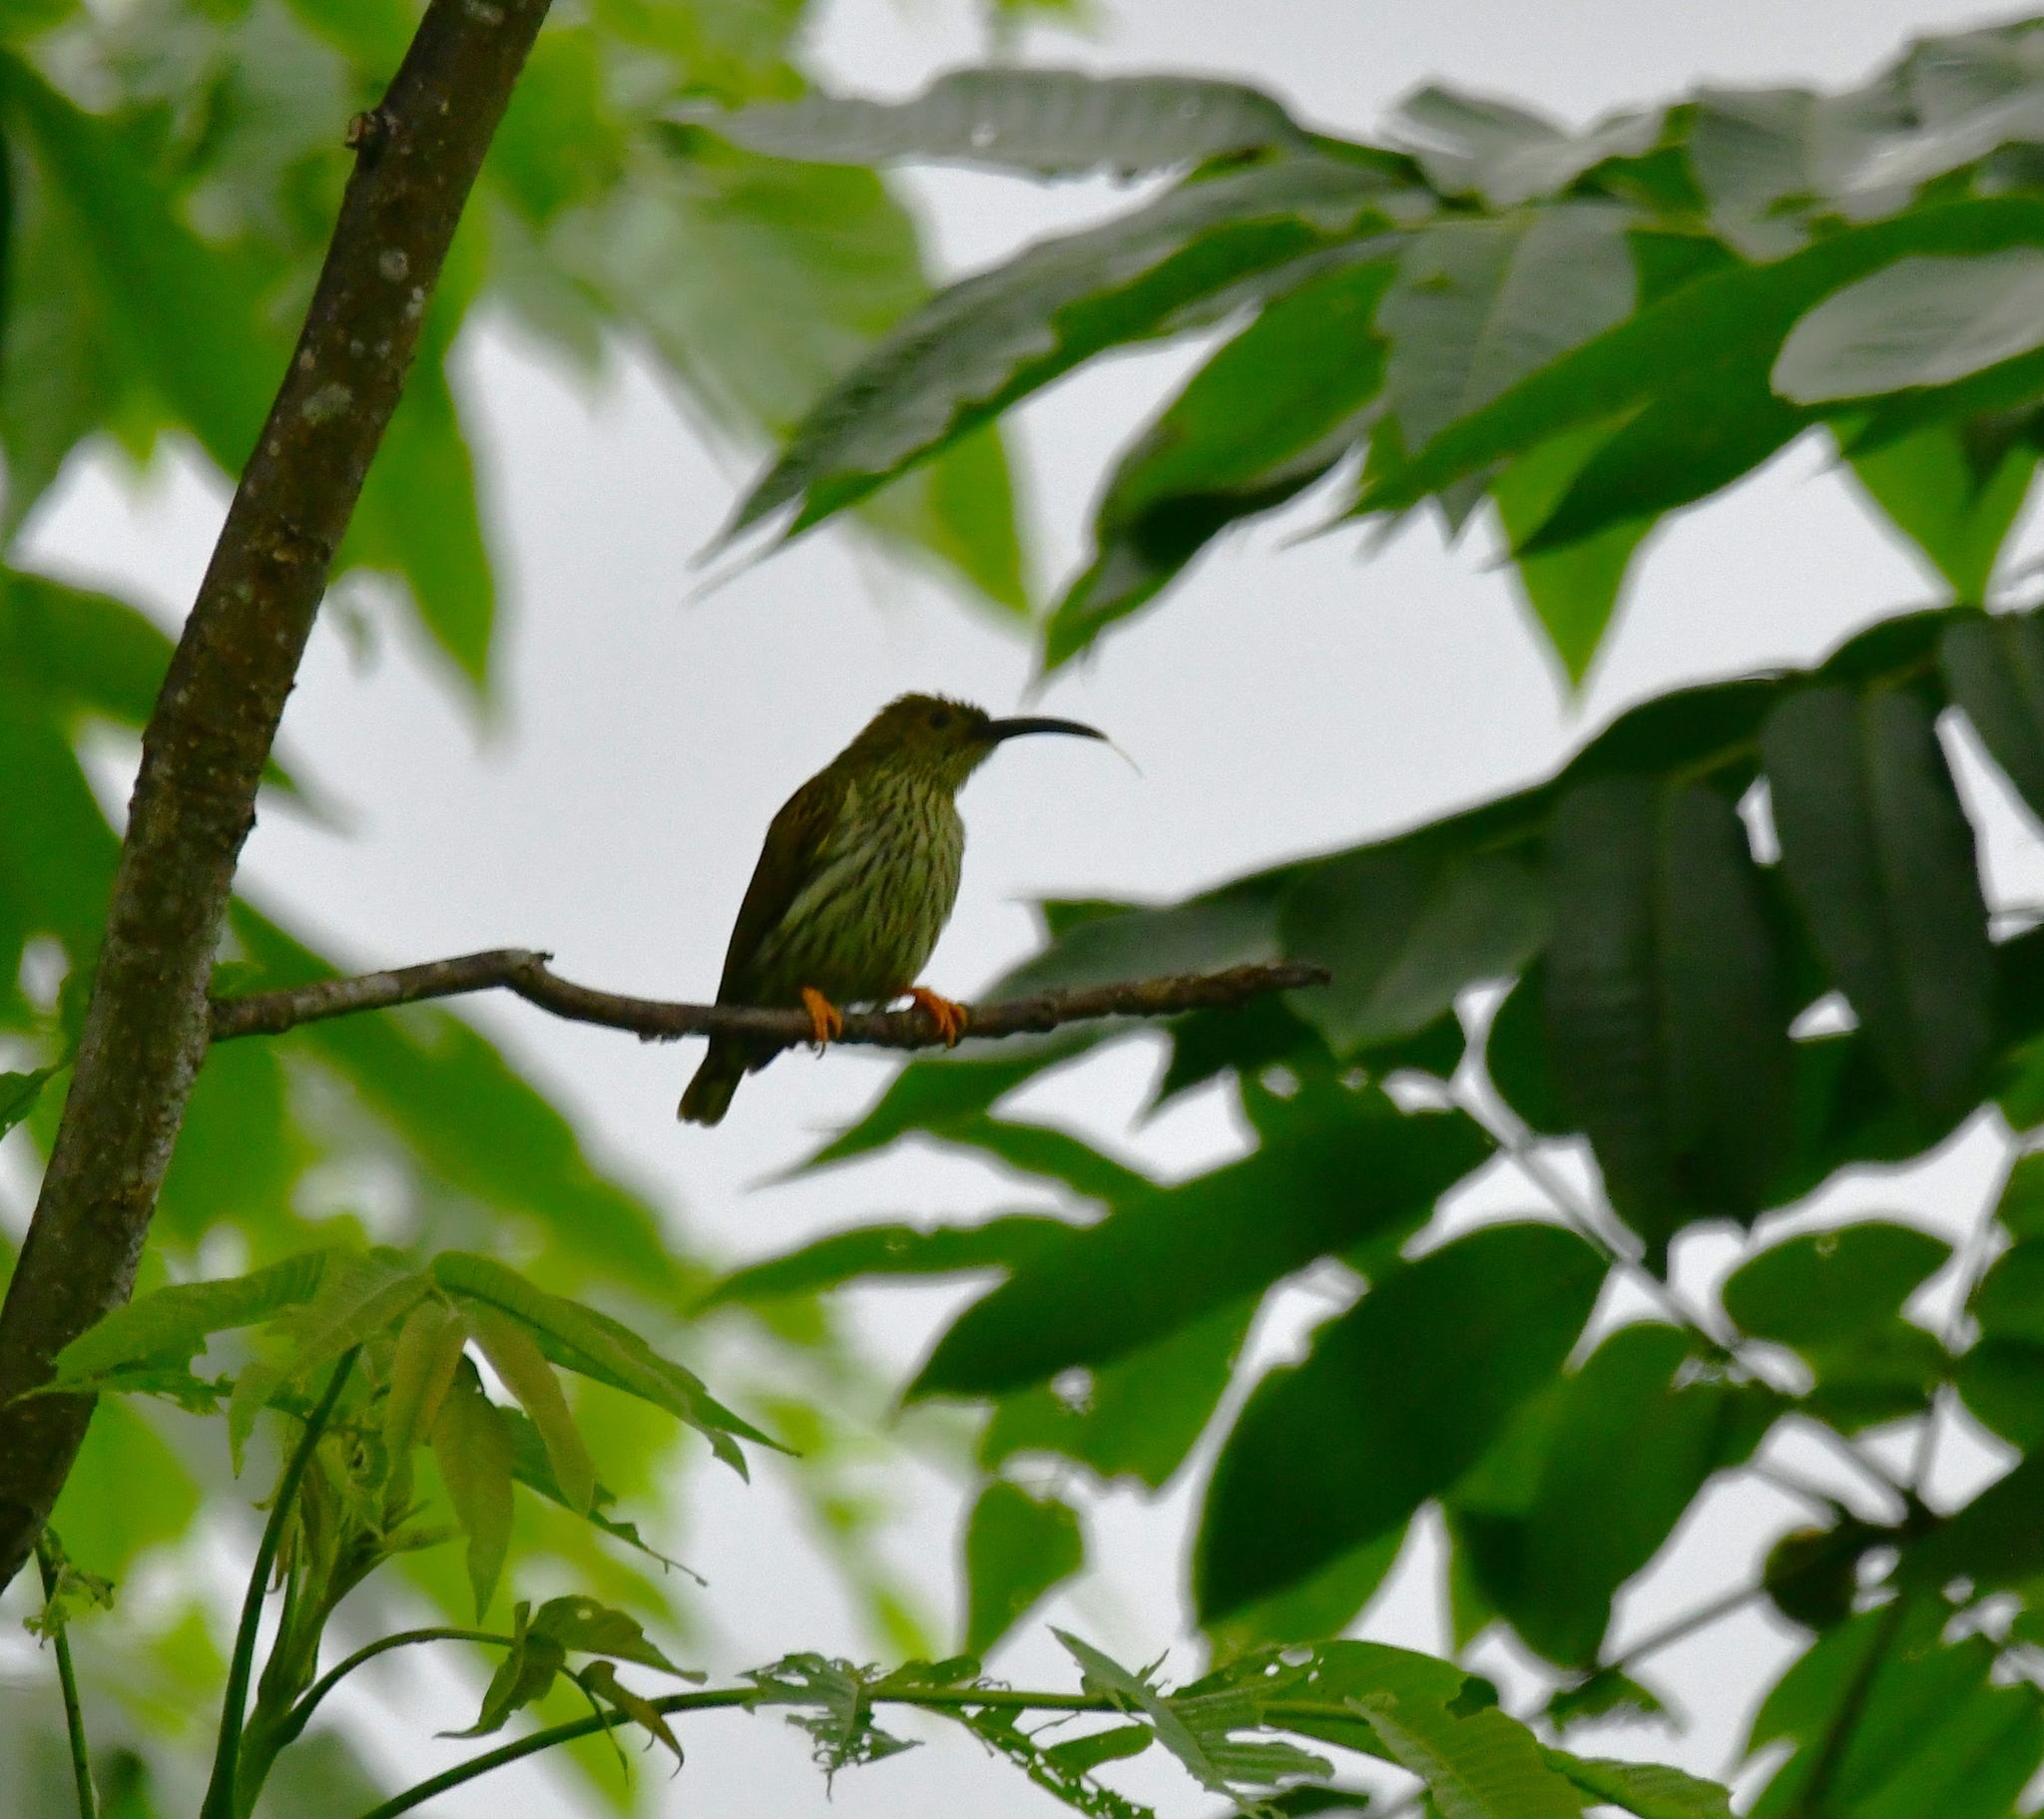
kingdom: Animalia
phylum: Chordata
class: Aves
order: Passeriformes
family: Nectariniidae
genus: Arachnothera
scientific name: Arachnothera magna
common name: Streaked spiderhunter
